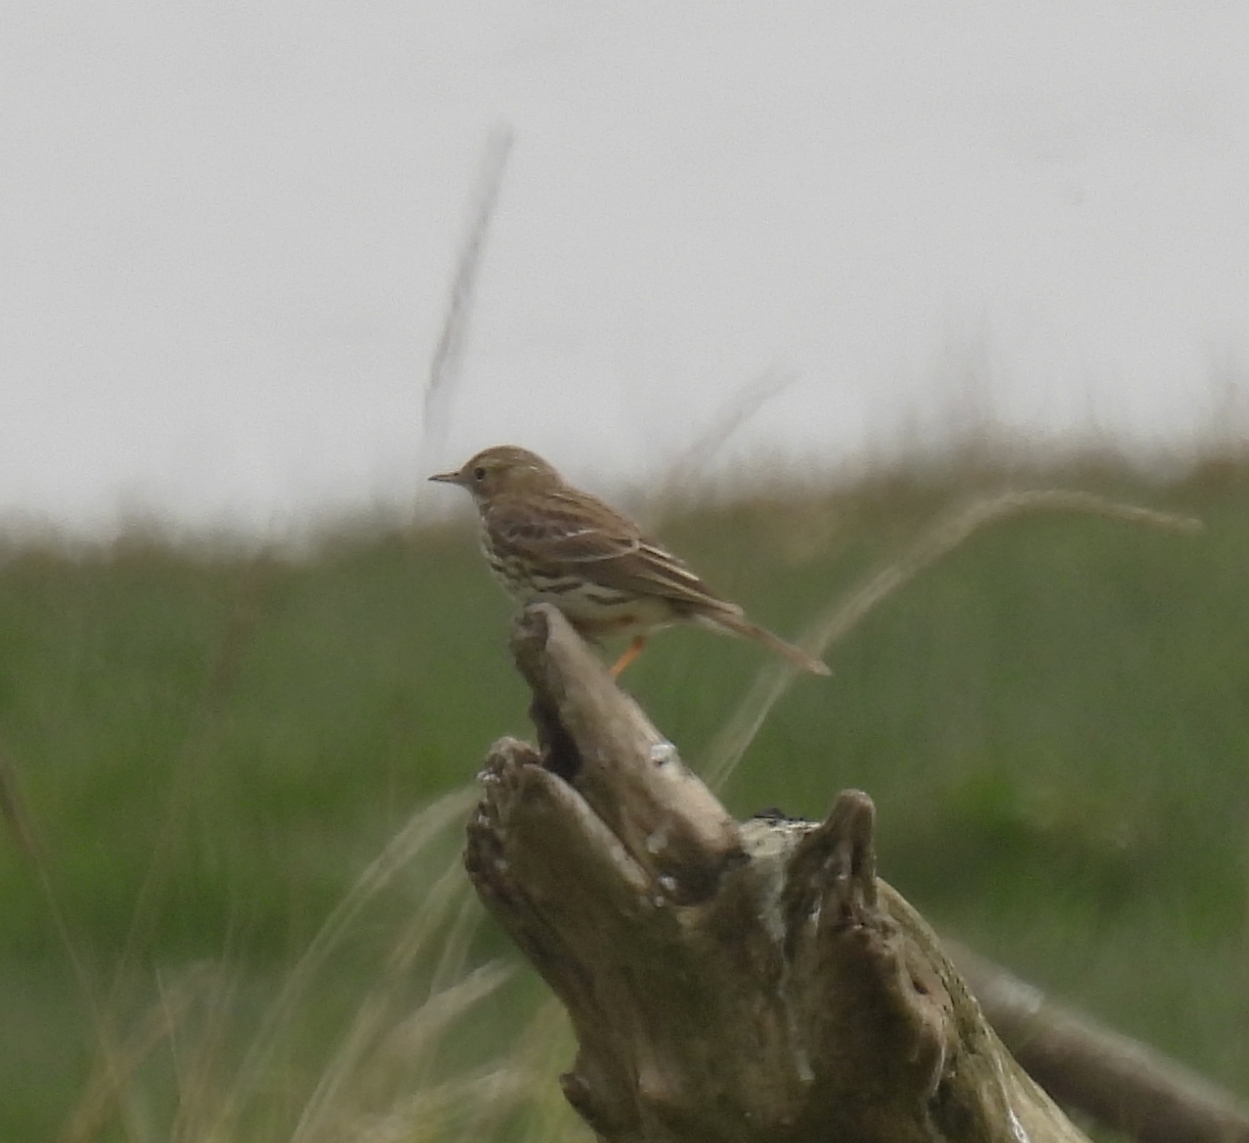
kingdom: Animalia
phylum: Chordata
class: Aves
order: Passeriformes
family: Motacillidae
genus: Anthus
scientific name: Anthus pratensis
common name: Meadow pipit
